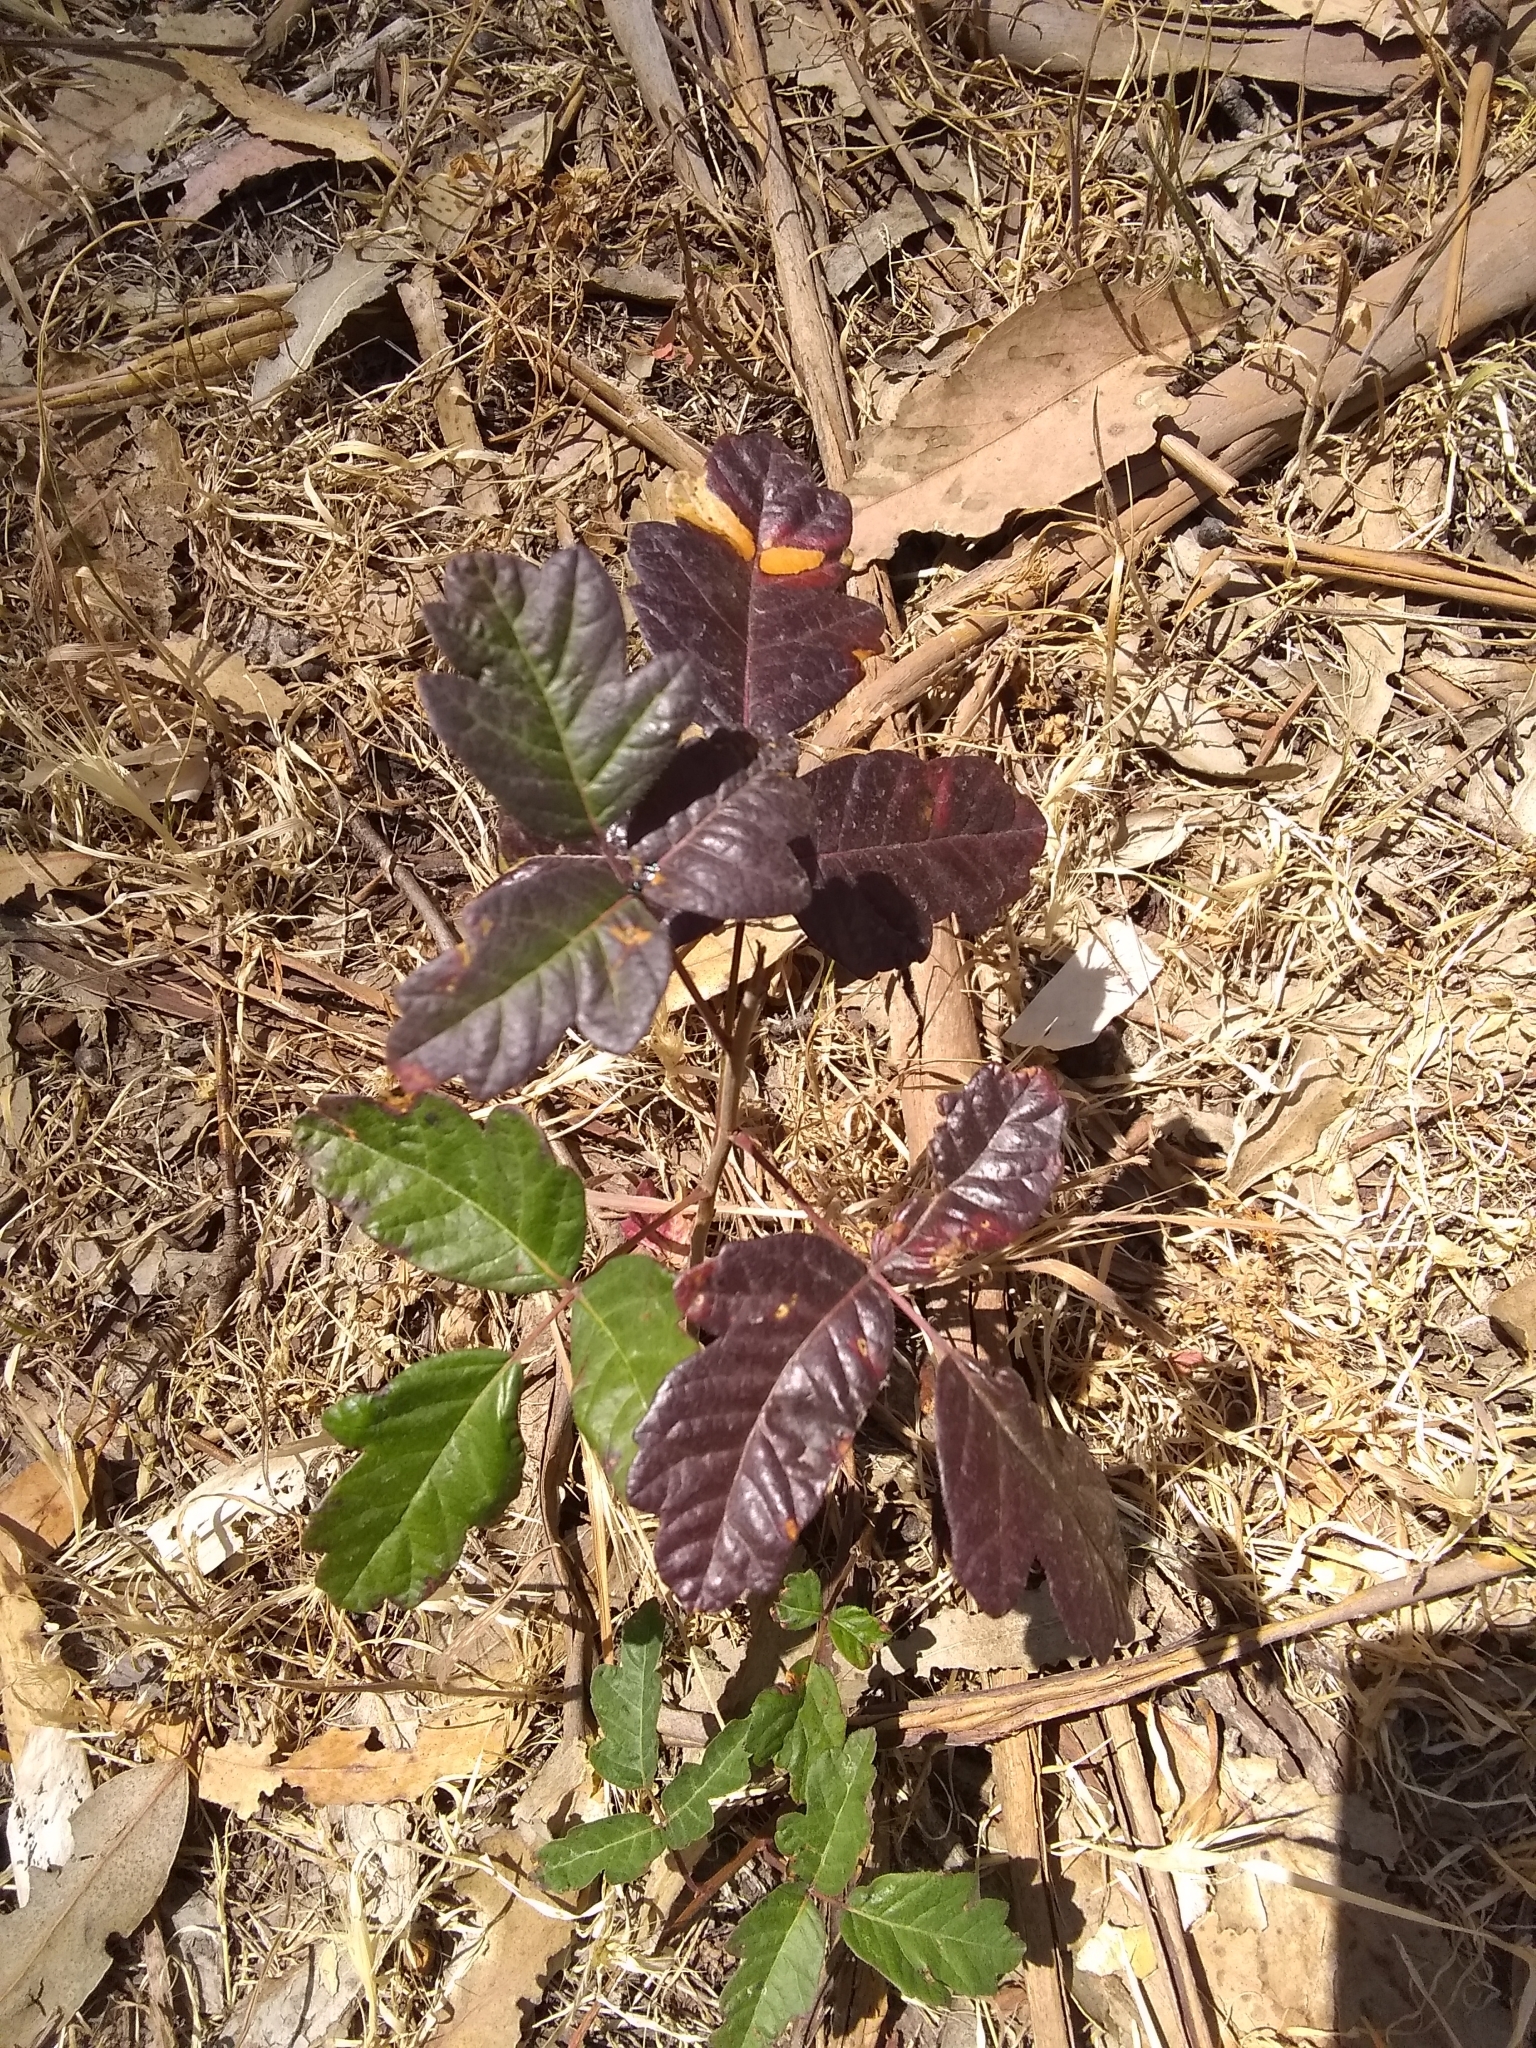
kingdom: Plantae
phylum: Tracheophyta
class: Magnoliopsida
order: Sapindales
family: Anacardiaceae
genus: Toxicodendron
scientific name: Toxicodendron diversilobum
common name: Pacific poison-oak
